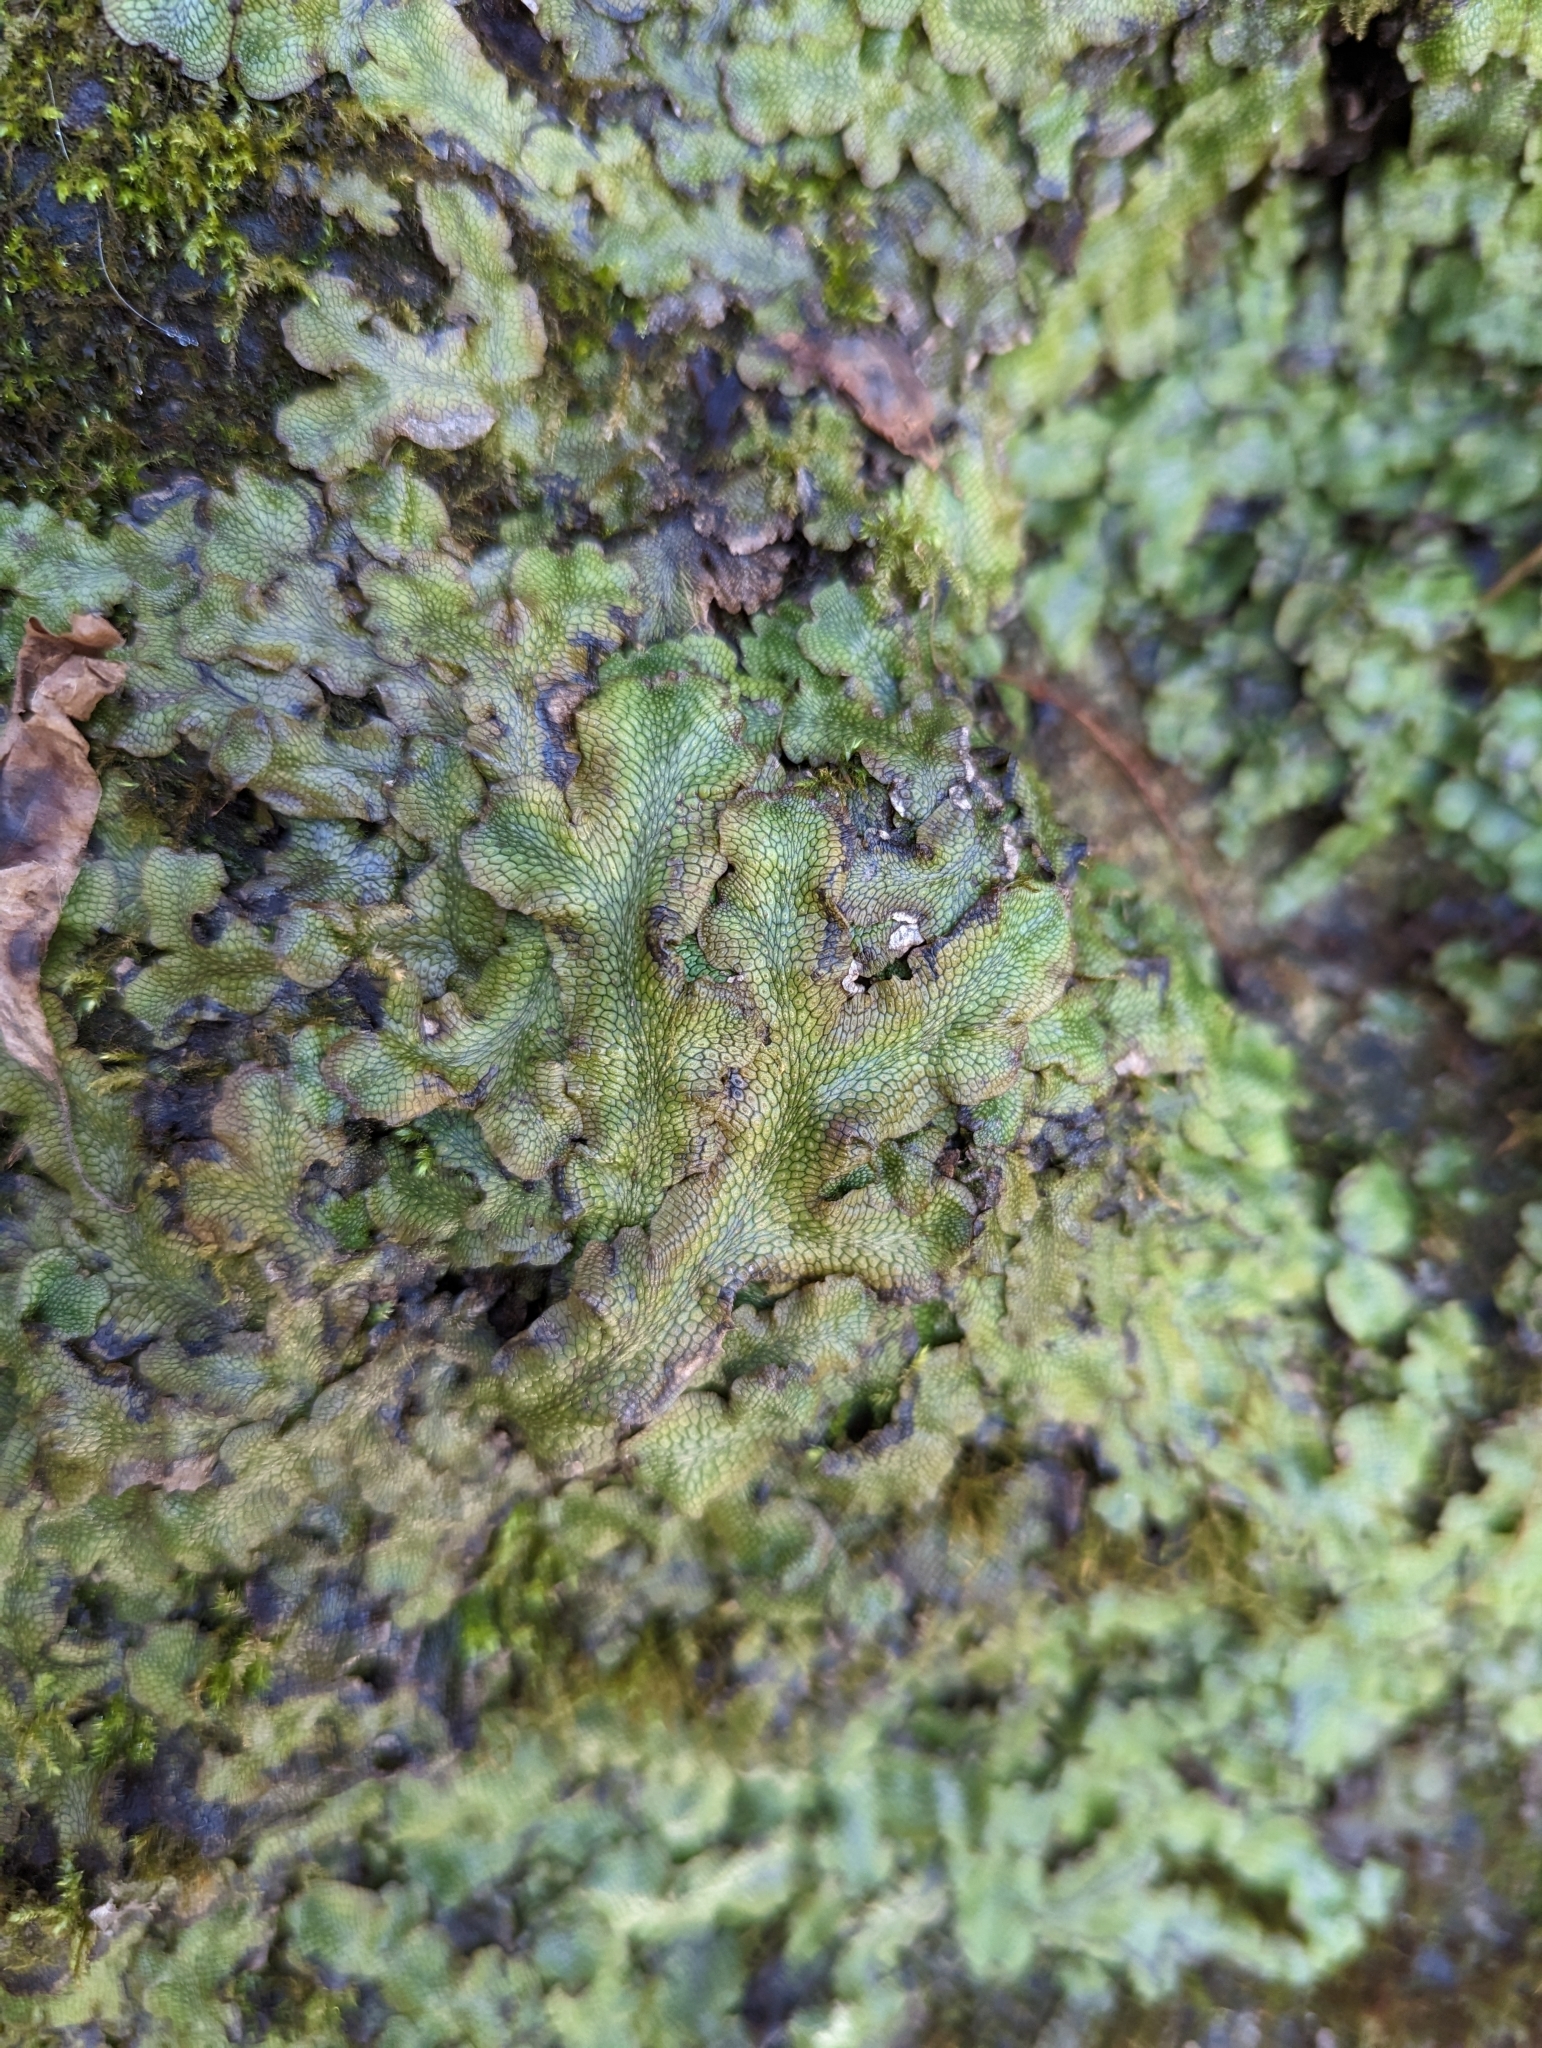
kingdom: Plantae
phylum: Marchantiophyta
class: Marchantiopsida
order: Marchantiales
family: Conocephalaceae
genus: Conocephalum
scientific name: Conocephalum salebrosum
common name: Cat-tongue liverwort
